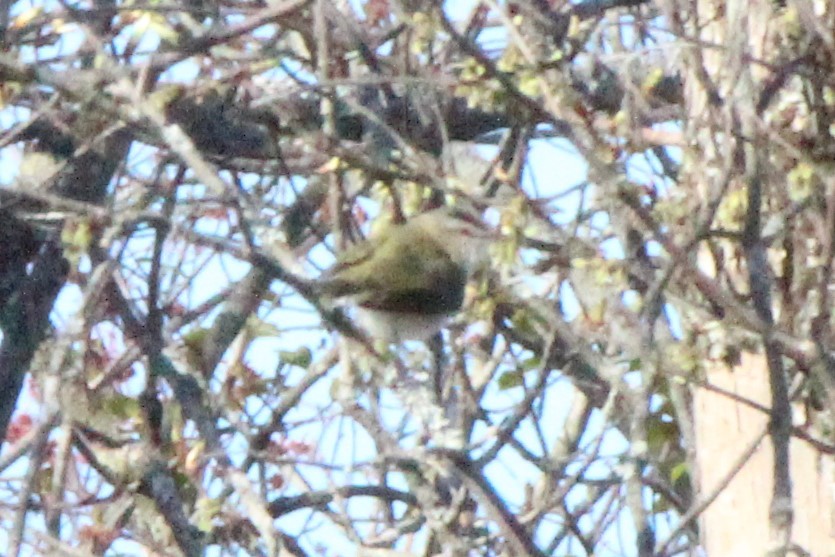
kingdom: Animalia
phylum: Chordata
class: Aves
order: Passeriformes
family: Vireonidae
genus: Vireo
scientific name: Vireo olivaceus
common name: Red-eyed vireo
